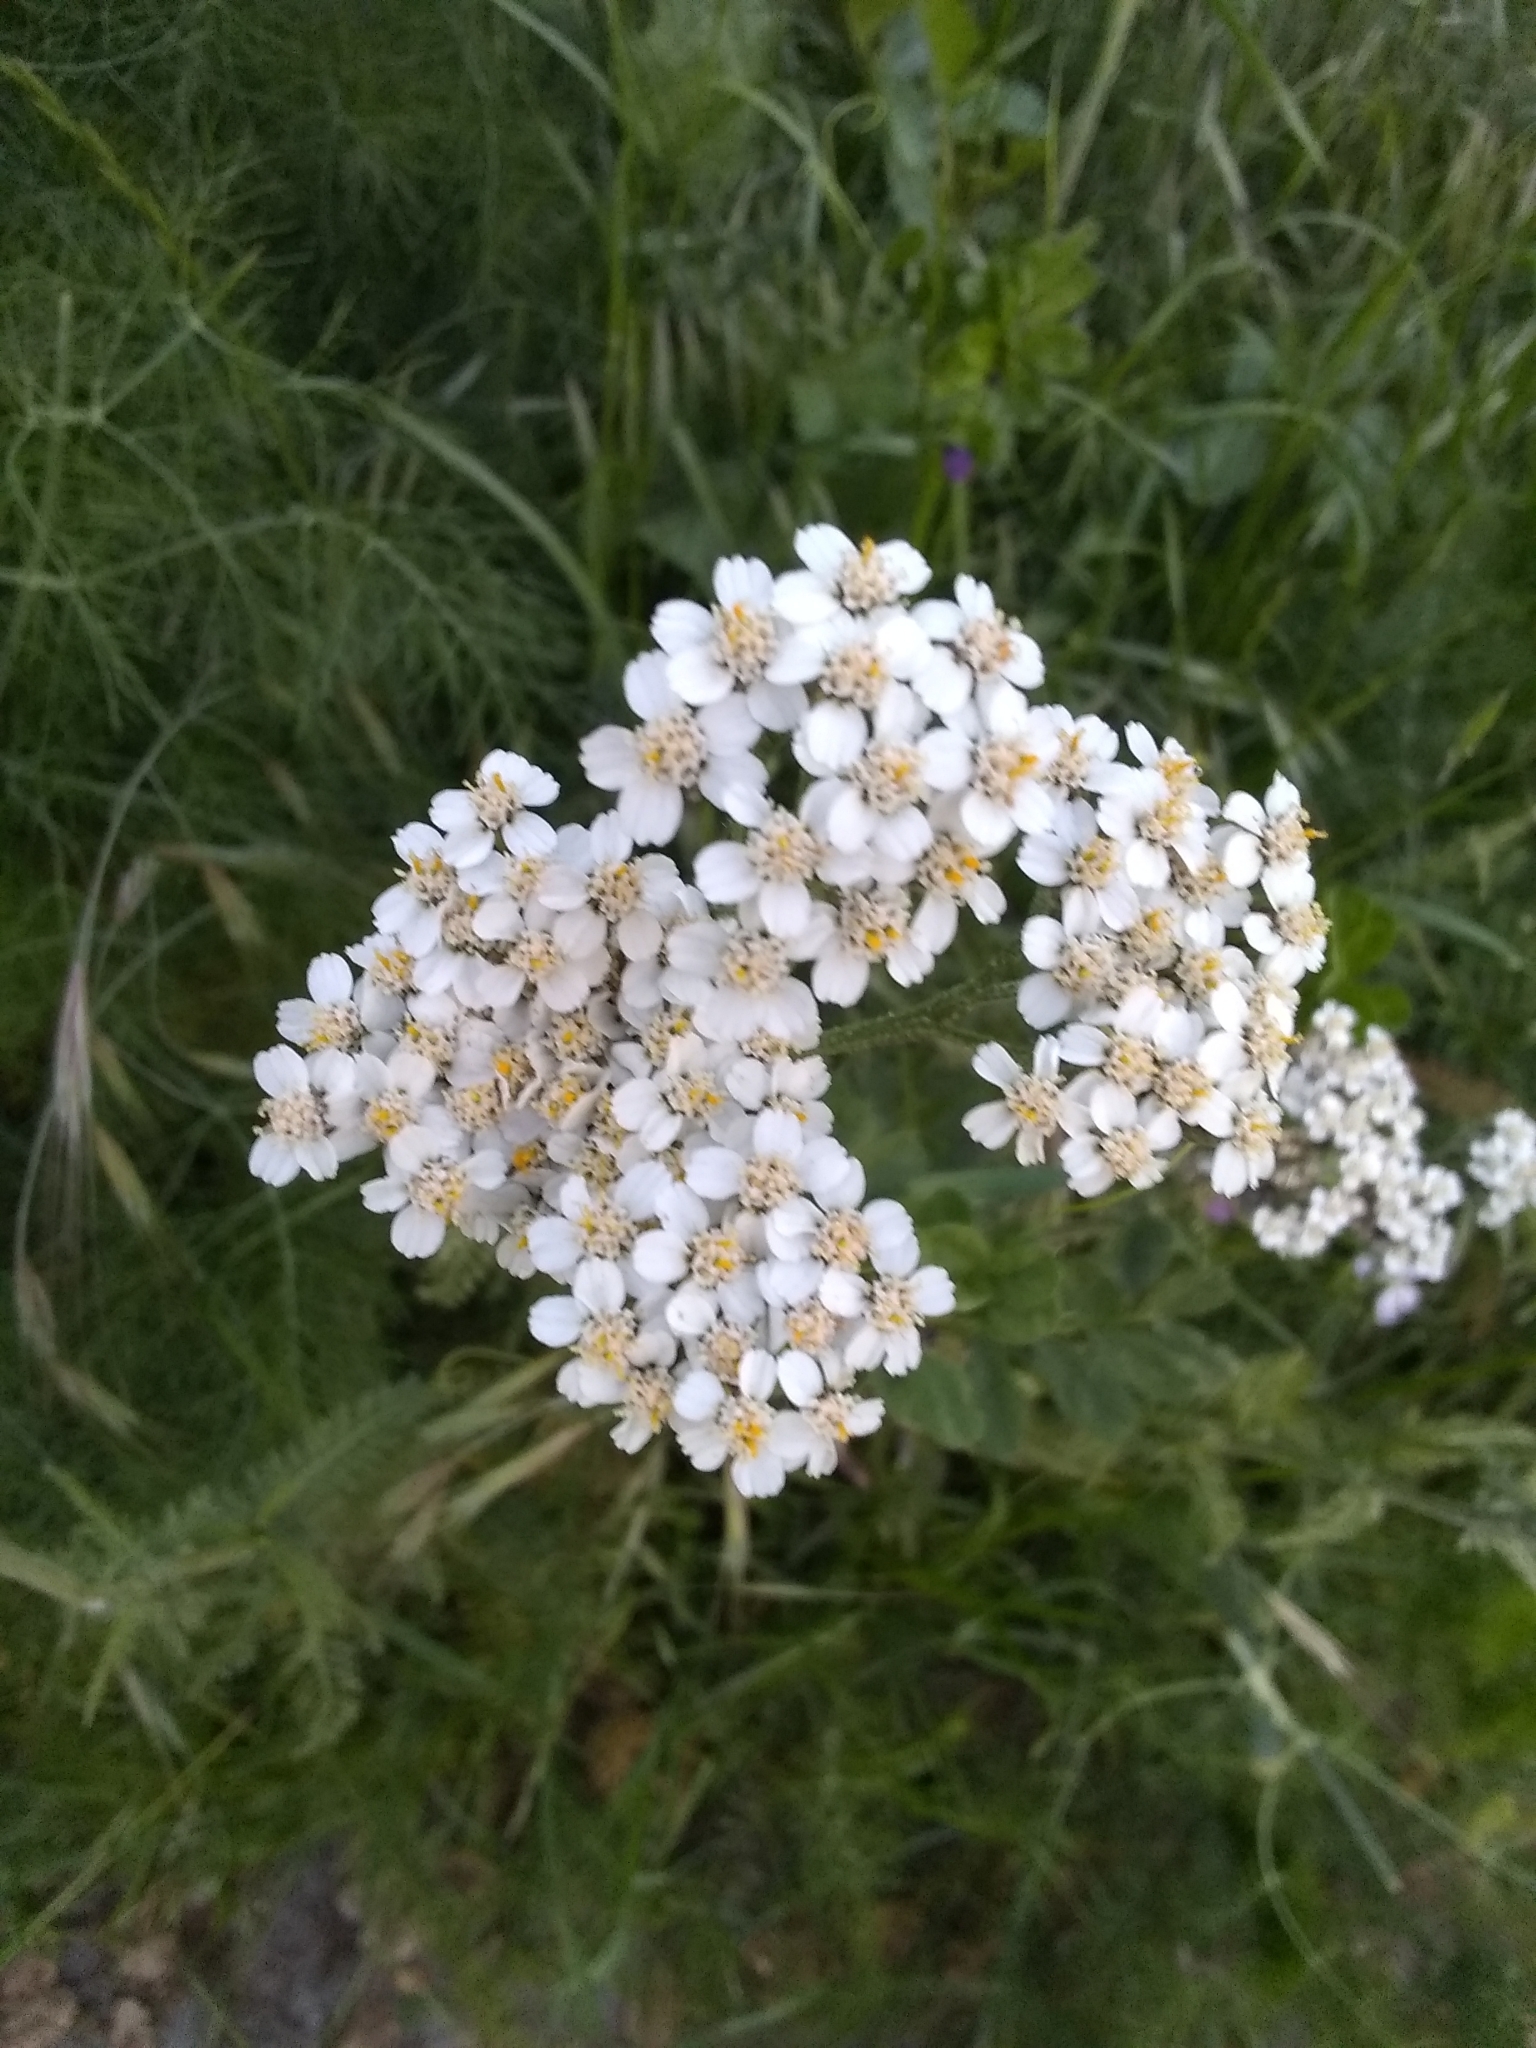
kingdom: Plantae
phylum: Tracheophyta
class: Magnoliopsida
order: Asterales
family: Asteraceae
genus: Achillea
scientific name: Achillea millefolium
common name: Yarrow
